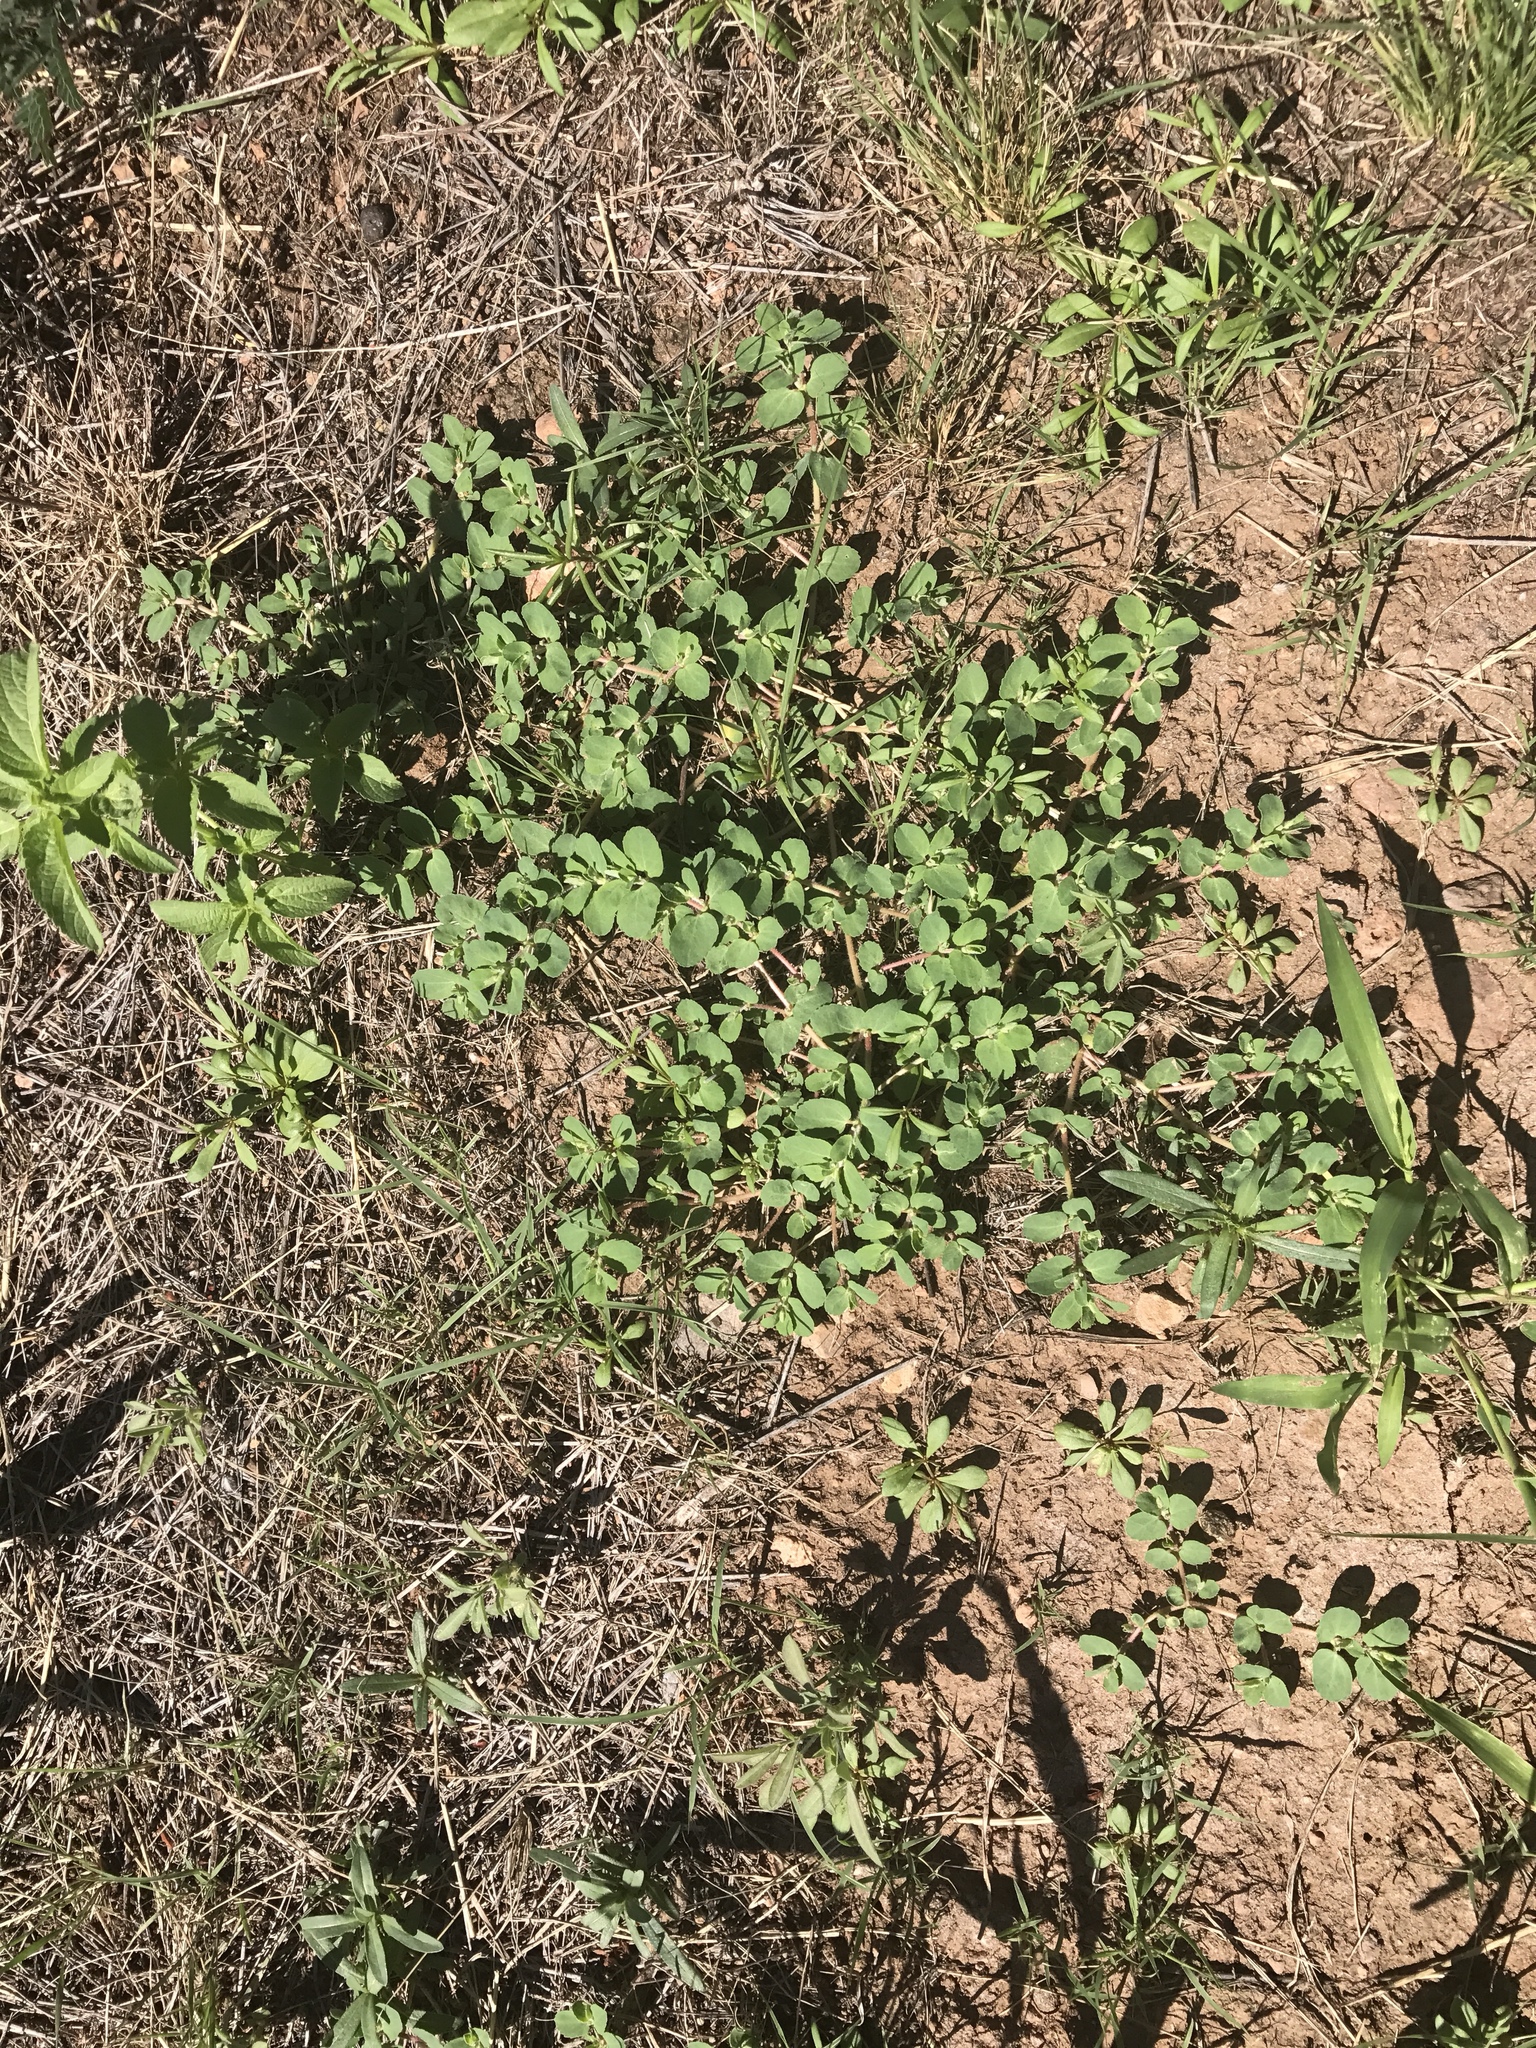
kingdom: Plantae
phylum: Tracheophyta
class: Magnoliopsida
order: Malpighiales
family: Euphorbiaceae
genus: Euphorbia
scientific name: Euphorbia stictospora
